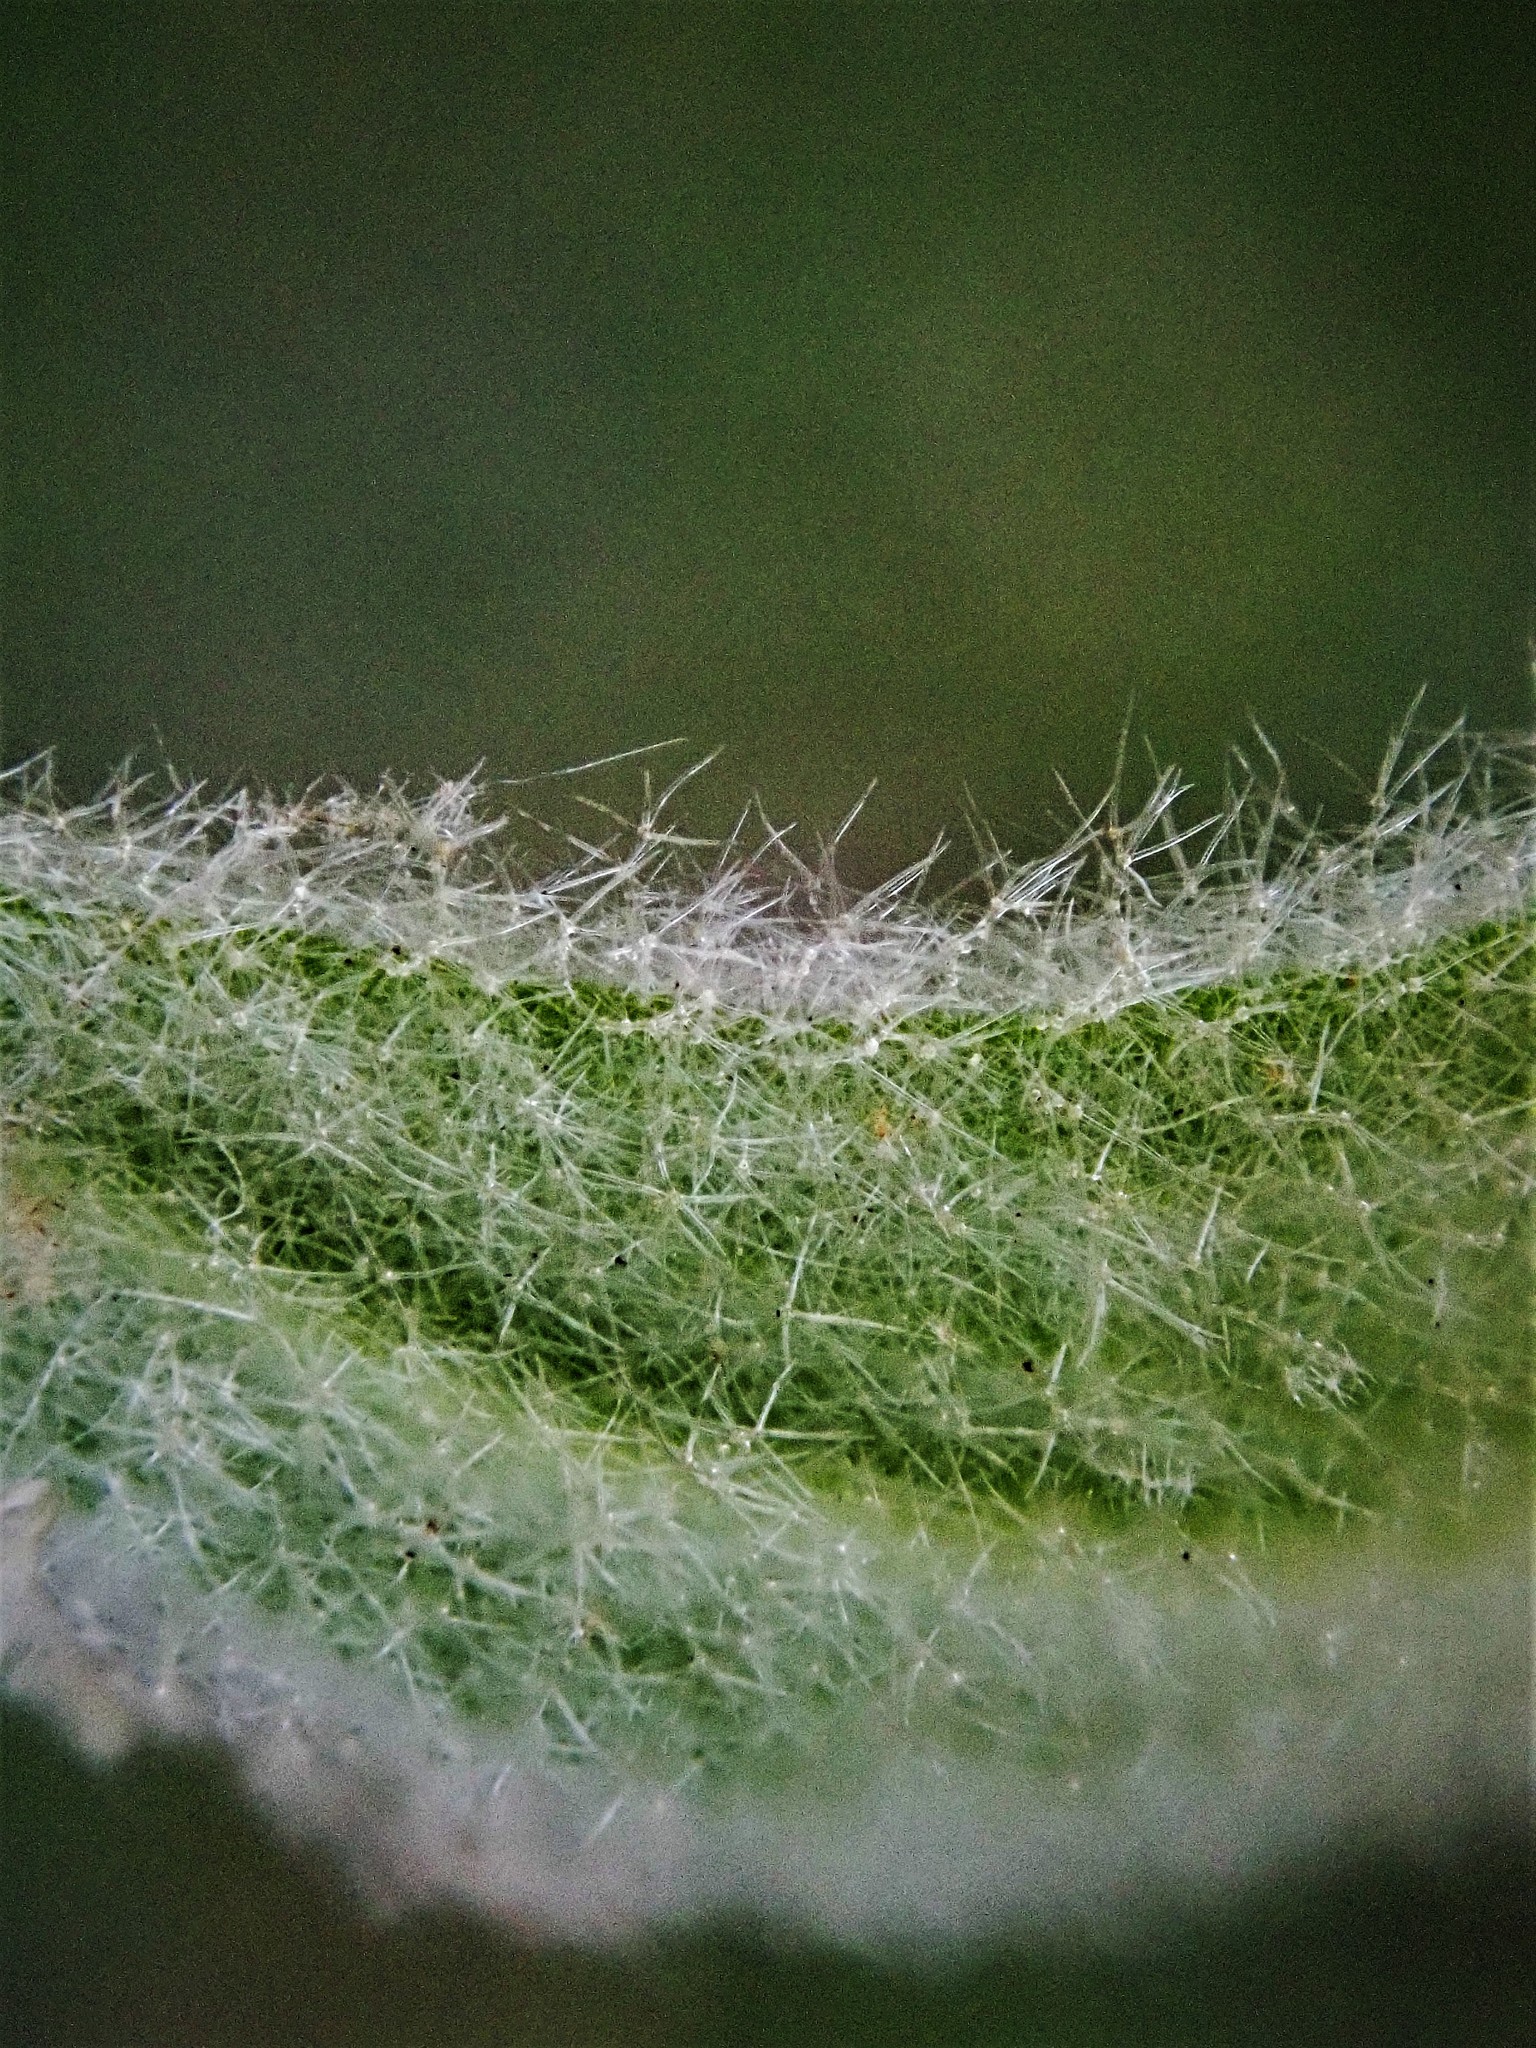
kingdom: Plantae
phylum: Tracheophyta
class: Magnoliopsida
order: Lamiales
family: Scrophulariaceae
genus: Verbascum
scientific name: Verbascum thapsus
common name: Common mullein
